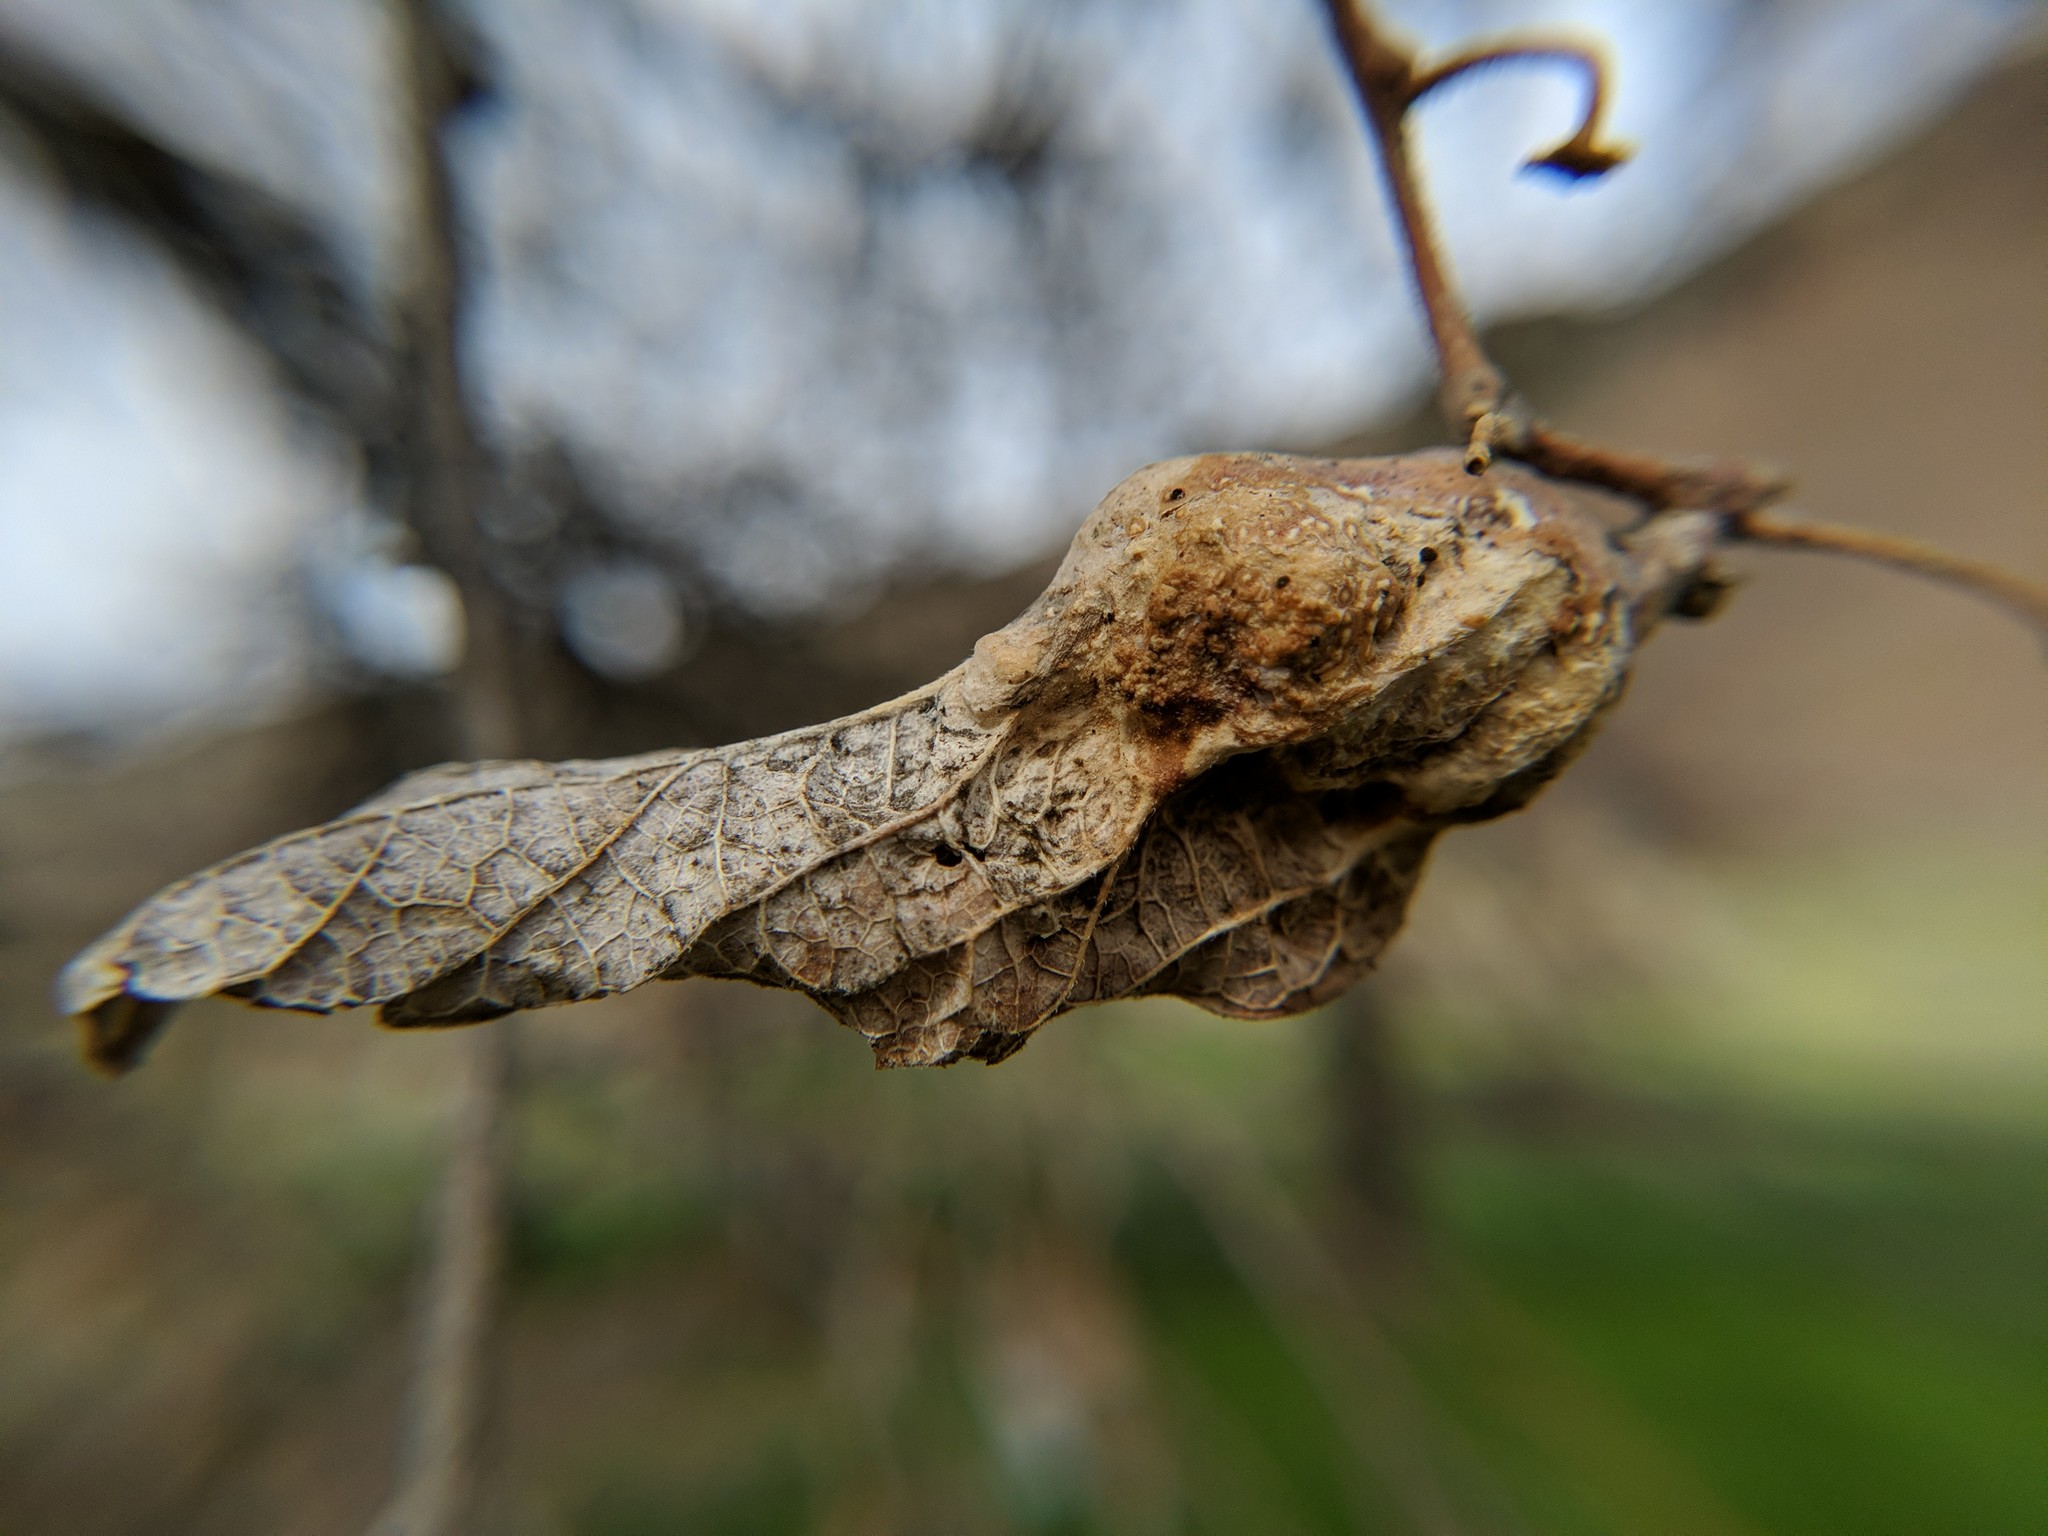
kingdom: Animalia
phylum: Arthropoda
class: Insecta
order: Hemiptera
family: Aphalaridae
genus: Pachypsylla
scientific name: Pachypsylla venusta
